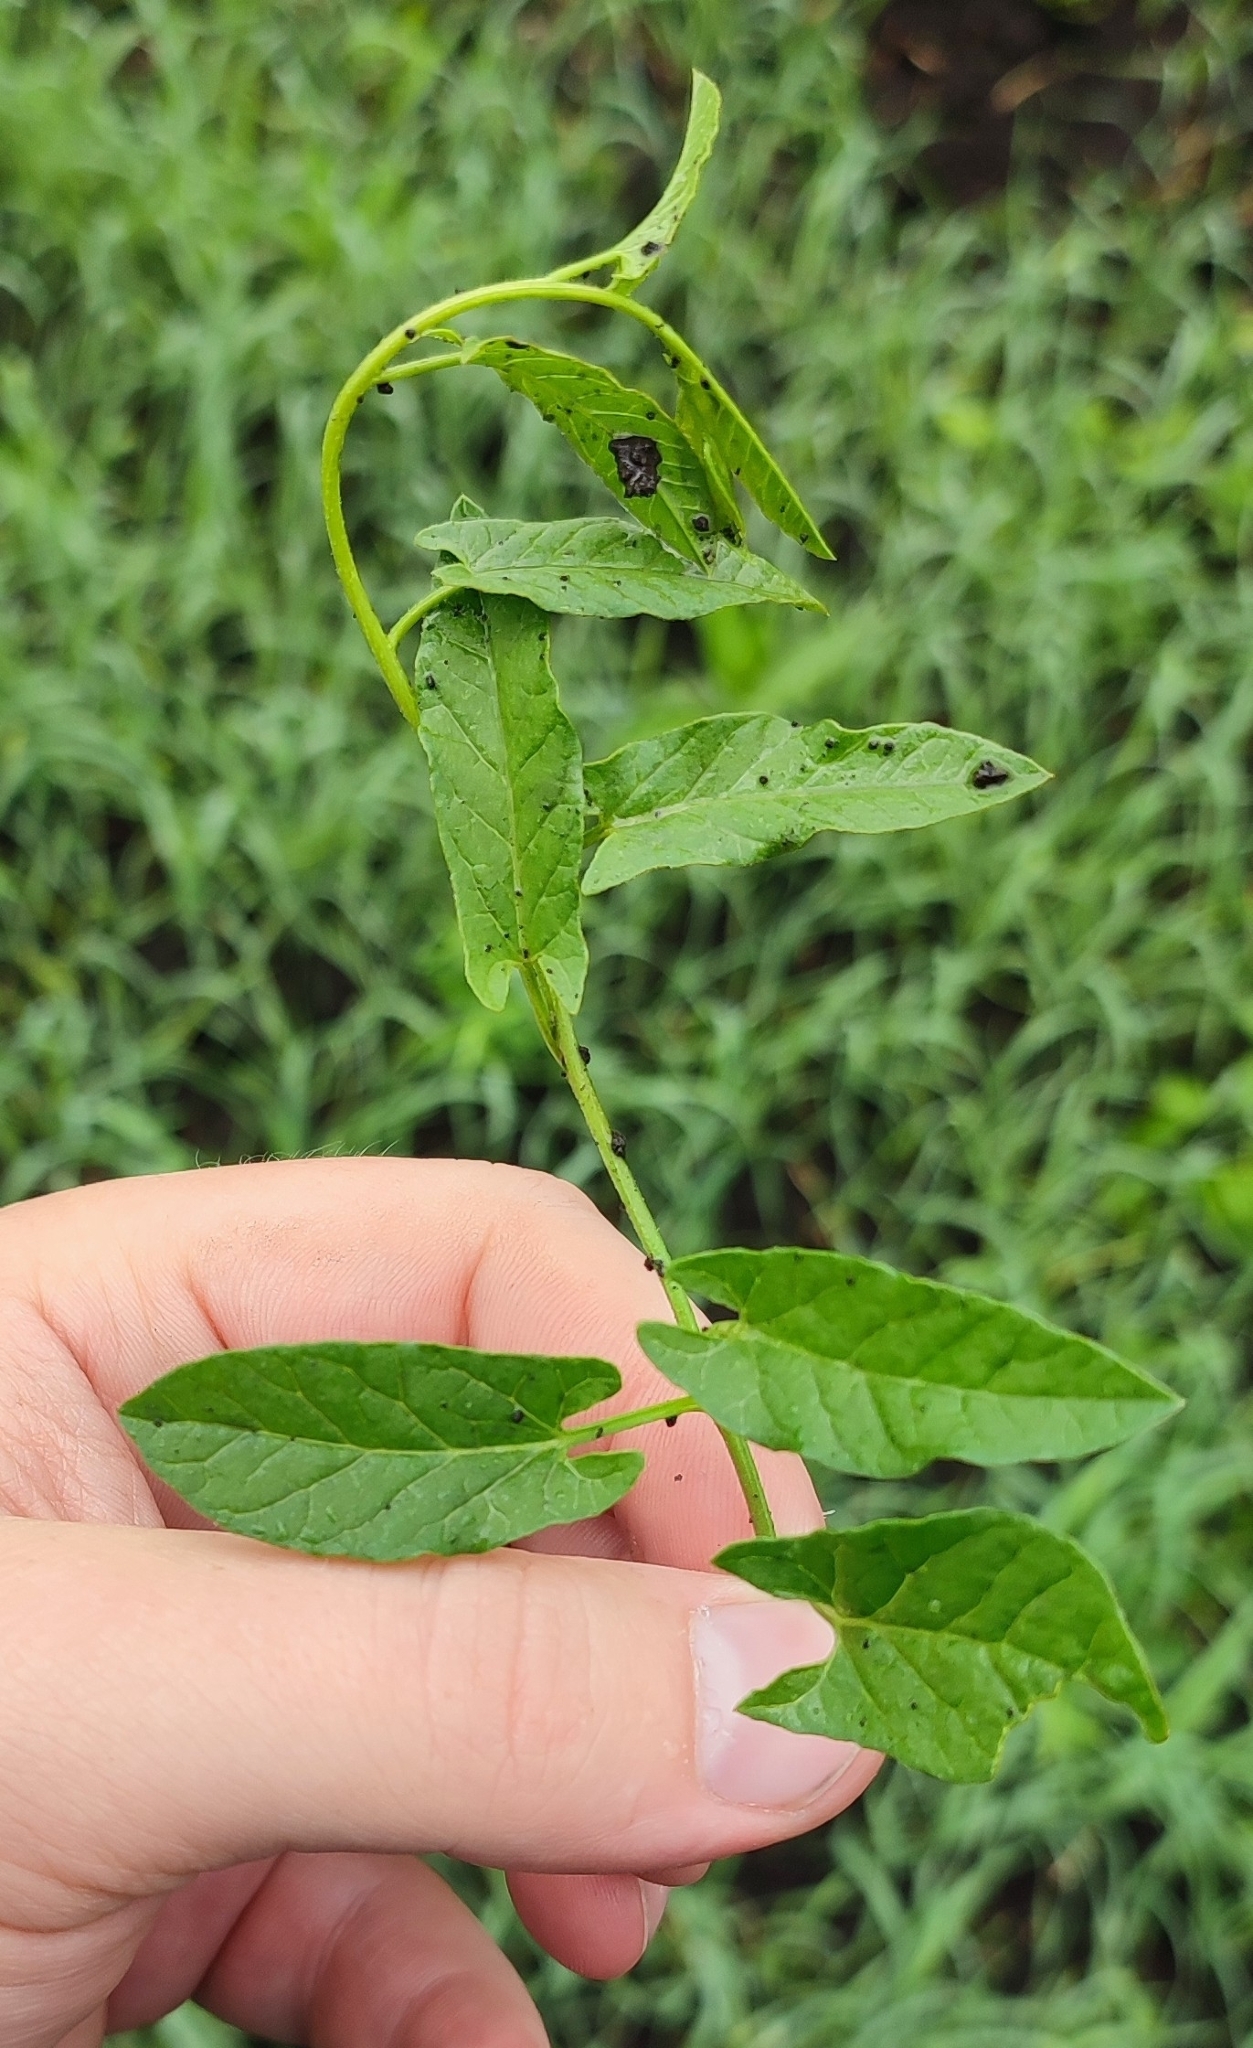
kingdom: Plantae
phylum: Tracheophyta
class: Magnoliopsida
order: Solanales
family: Convolvulaceae
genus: Convolvulus
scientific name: Convolvulus arvensis
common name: Field bindweed
